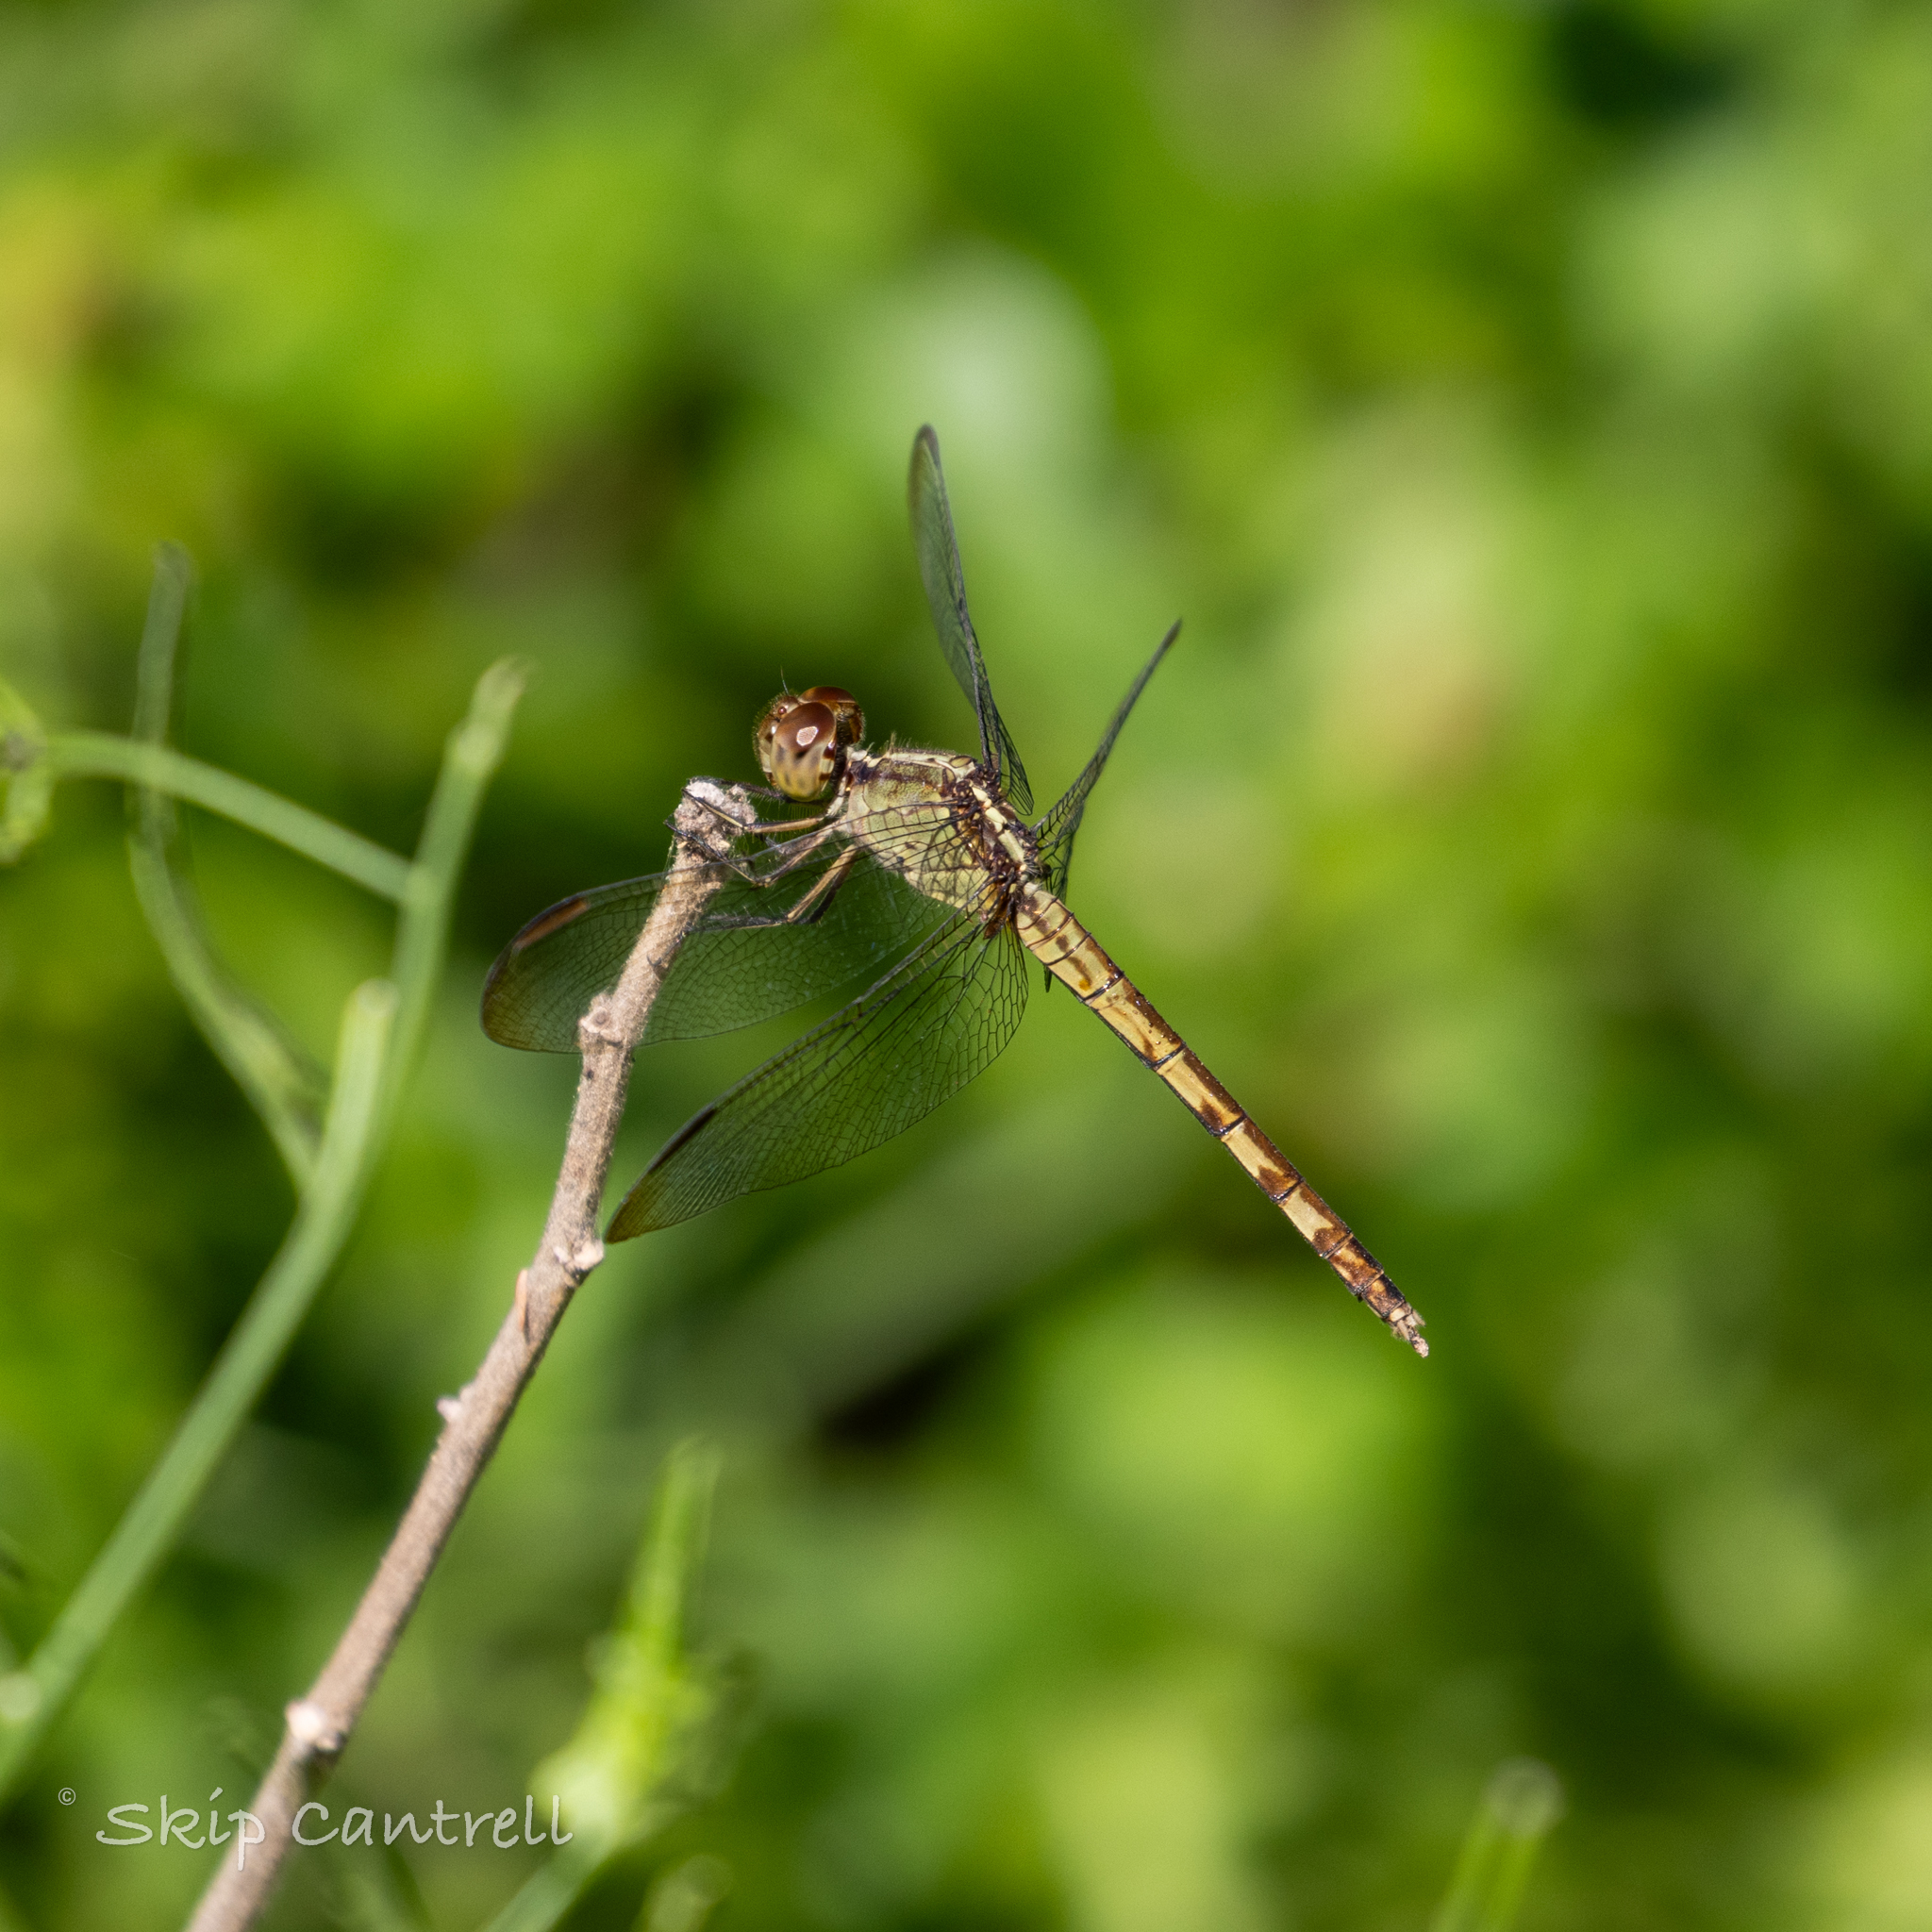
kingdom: Animalia
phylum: Arthropoda
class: Insecta
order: Odonata
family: Libellulidae
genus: Erythrodiplax
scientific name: Erythrodiplax umbrata
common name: Band-winged dragonlet
